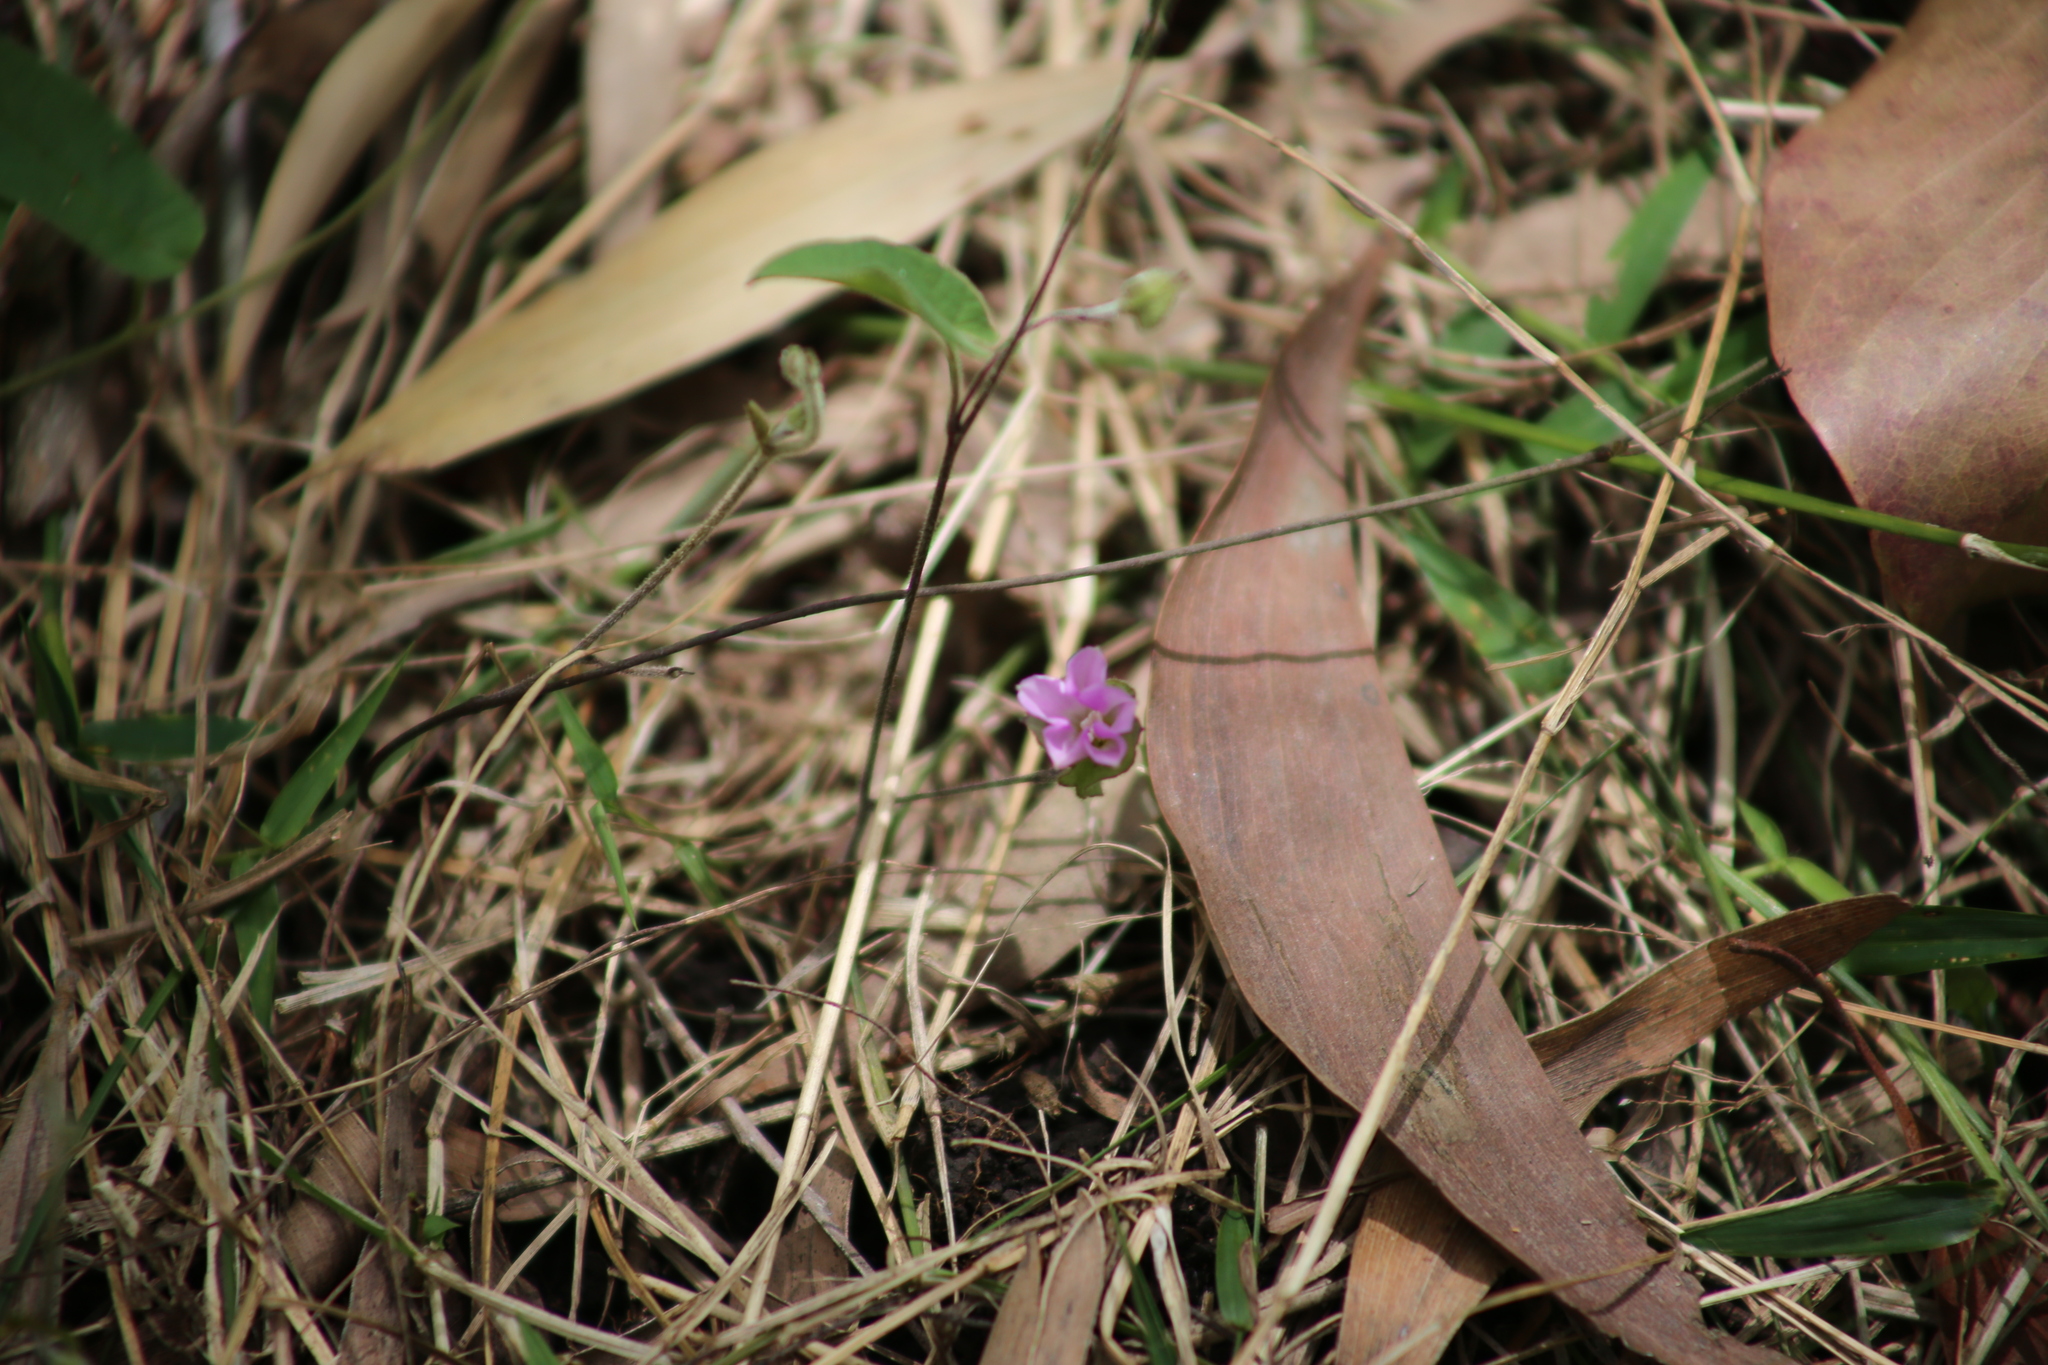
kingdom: Plantae
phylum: Tracheophyta
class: Magnoliopsida
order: Solanales
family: Convolvulaceae
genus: Polymeria
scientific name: Polymeria calycina
